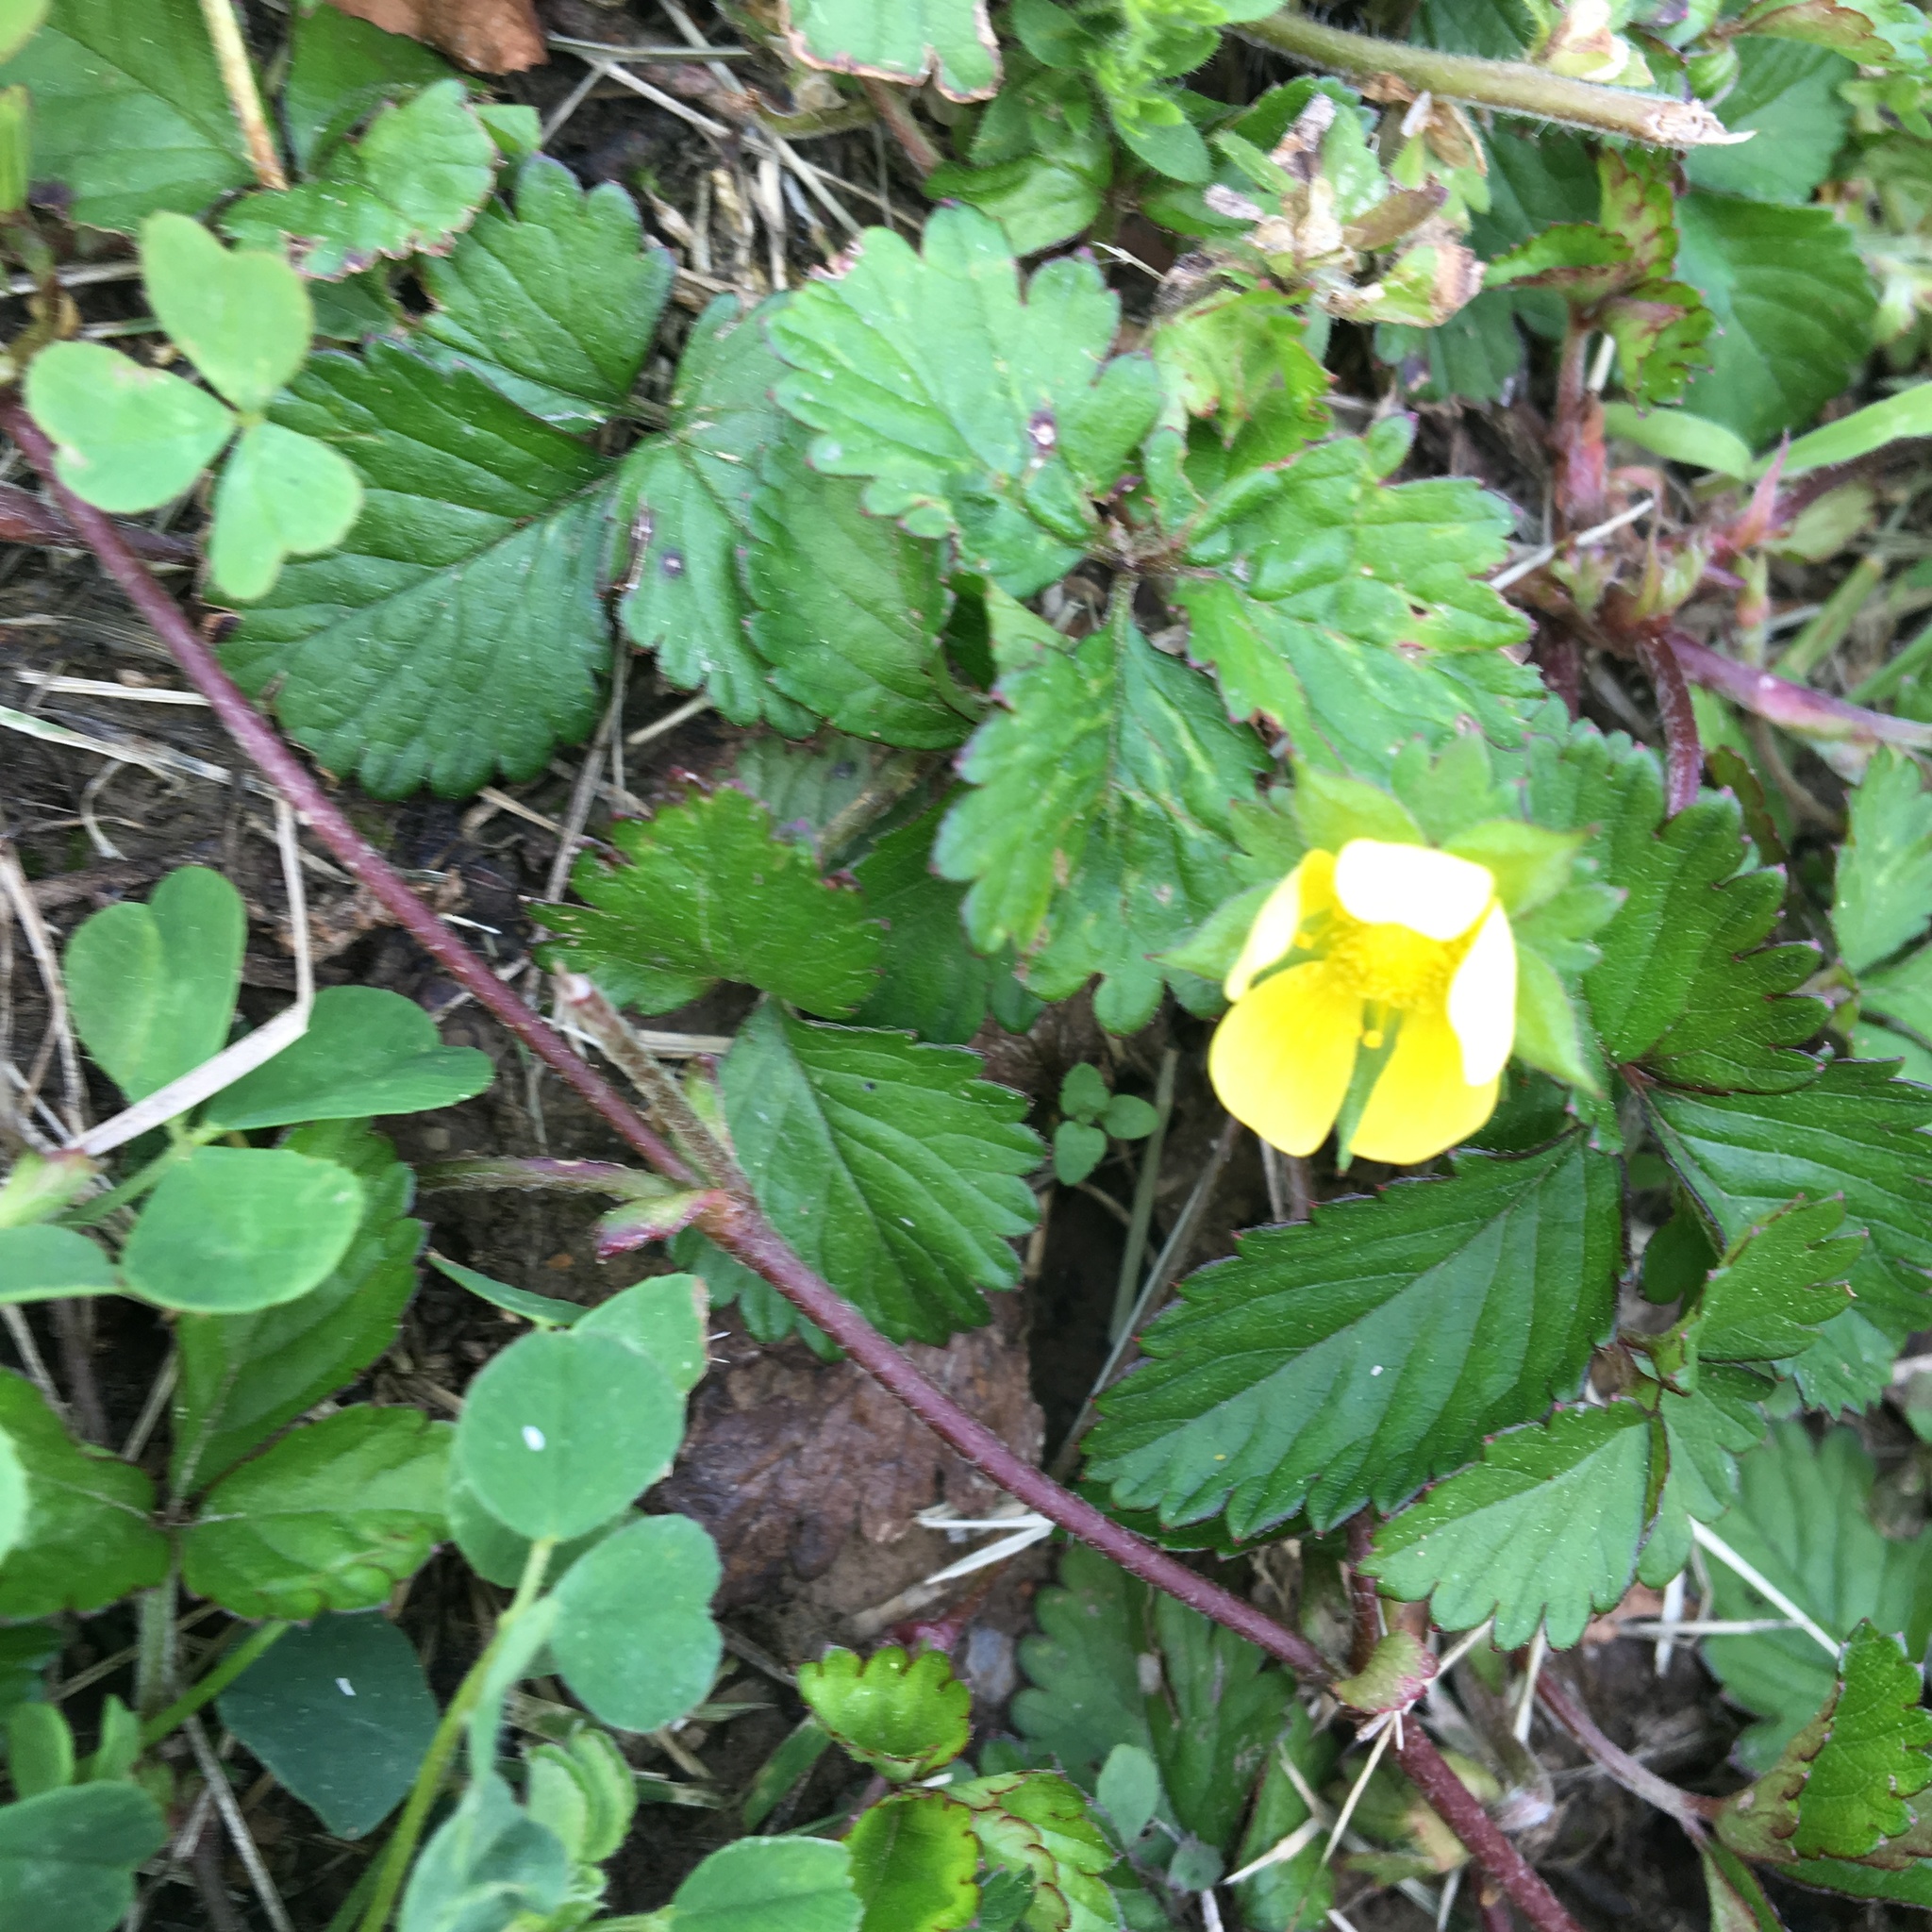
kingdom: Plantae
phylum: Tracheophyta
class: Magnoliopsida
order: Rosales
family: Rosaceae
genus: Potentilla
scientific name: Potentilla indica
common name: Yellow-flowered strawberry
